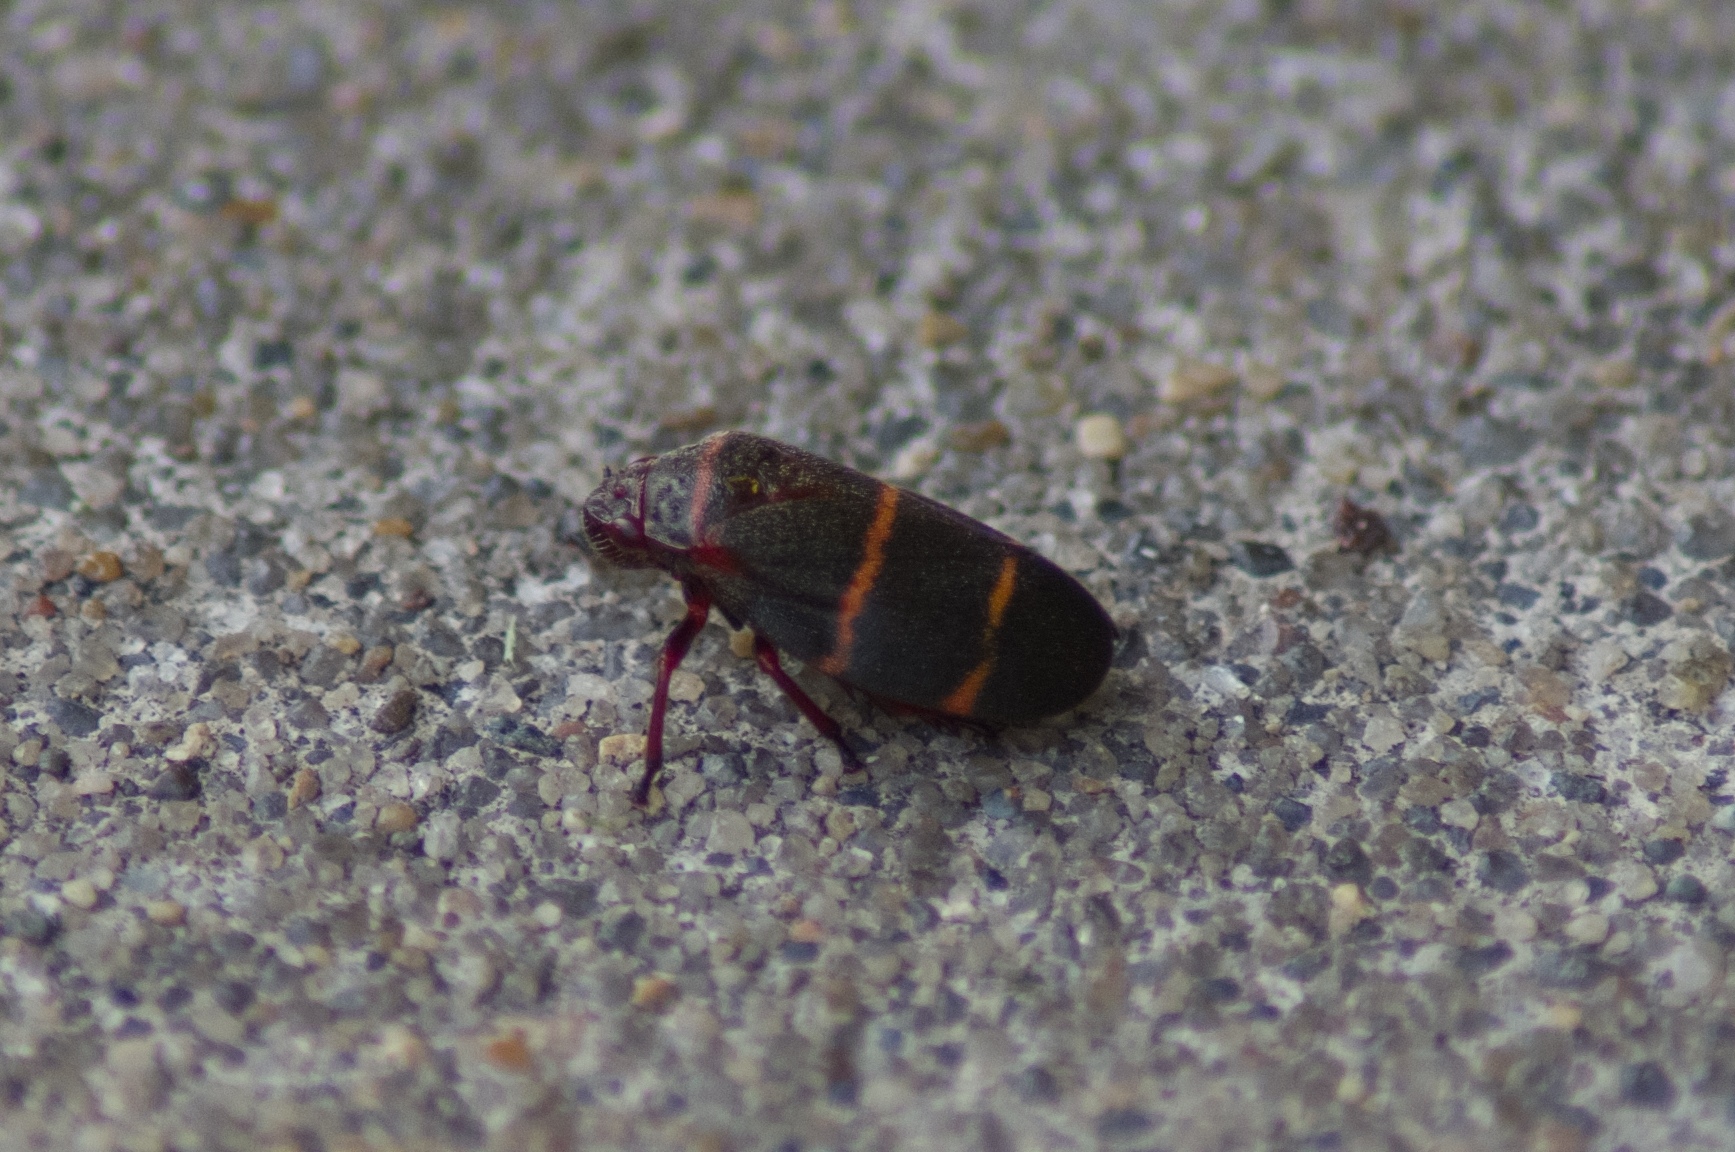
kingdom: Animalia
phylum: Arthropoda
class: Insecta
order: Hemiptera
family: Cercopidae
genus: Prosapia
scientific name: Prosapia bicincta
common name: Twolined spittlebug
